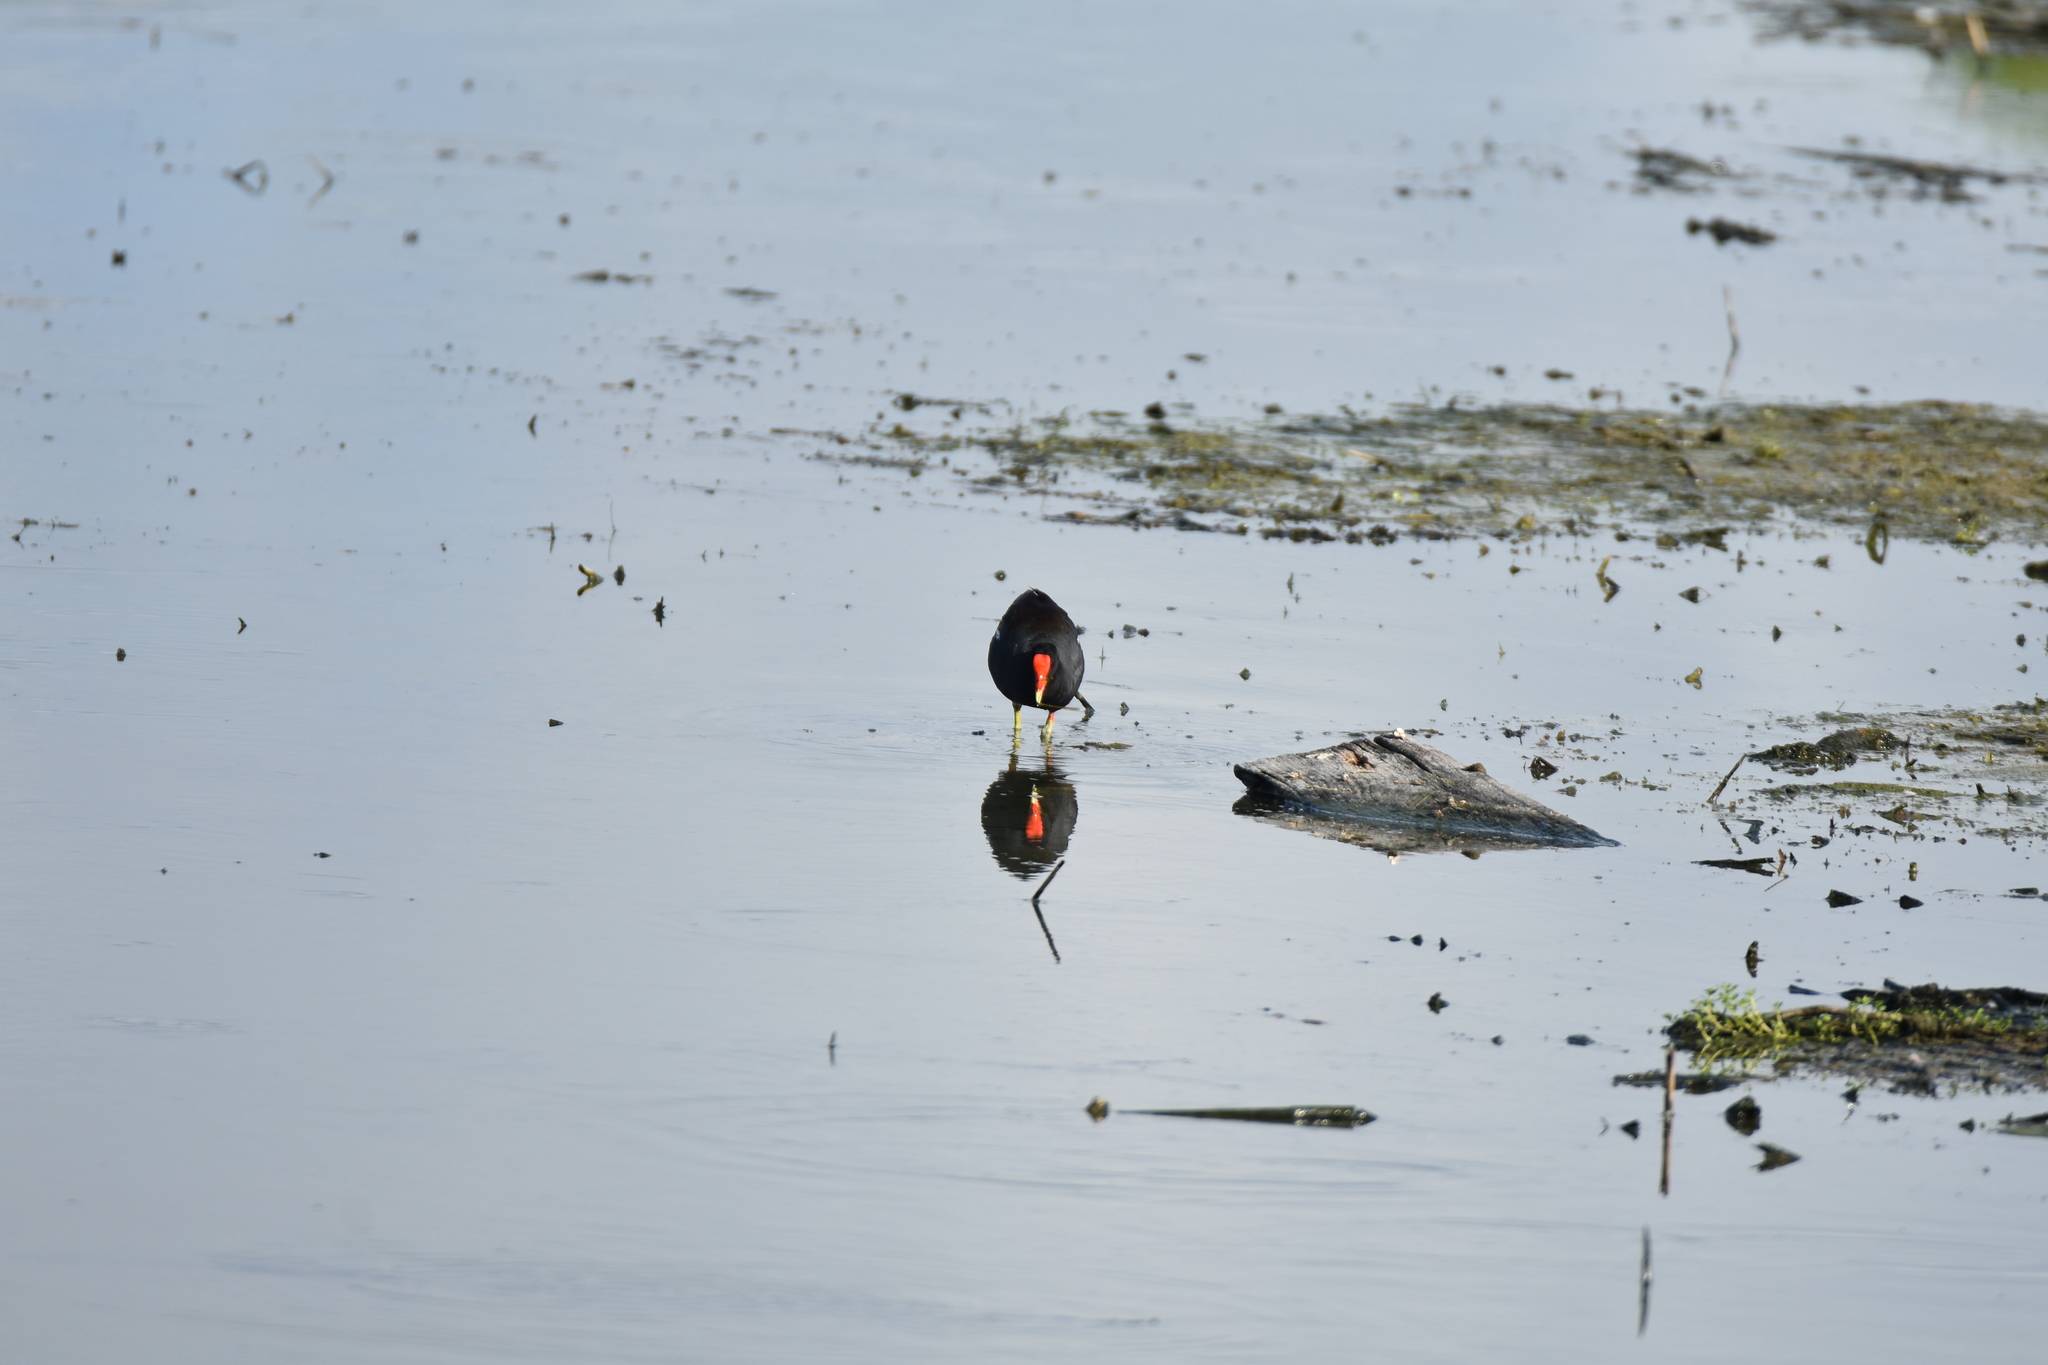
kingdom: Animalia
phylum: Chordata
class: Aves
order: Gruiformes
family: Rallidae
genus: Gallinula
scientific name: Gallinula chloropus
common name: Common moorhen
